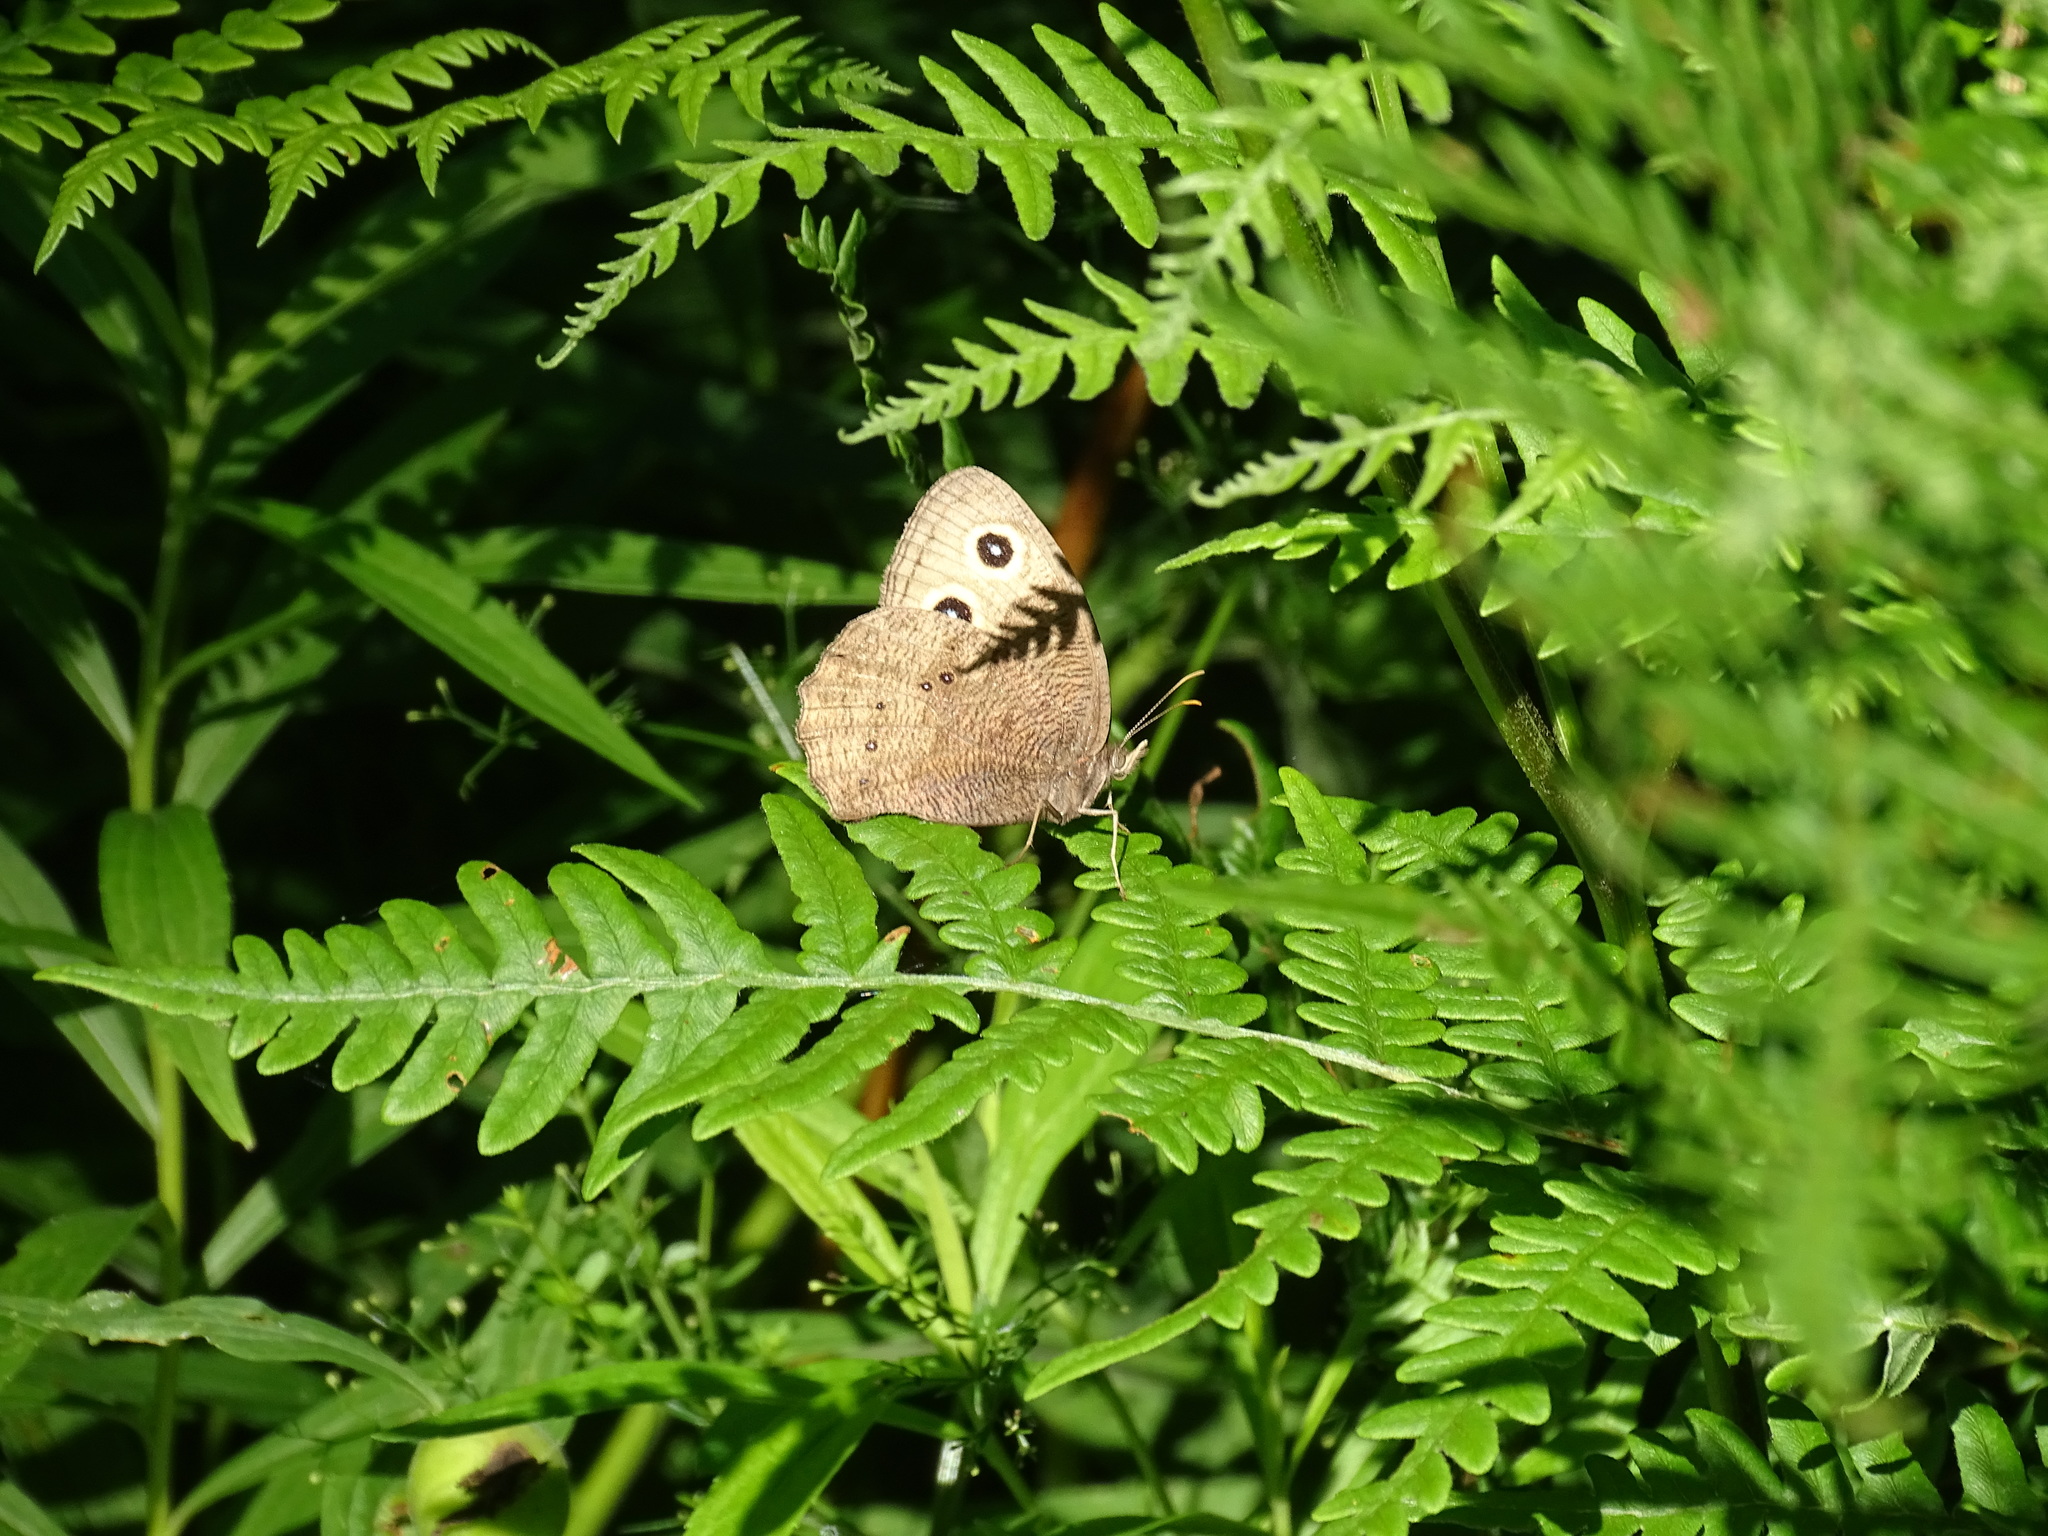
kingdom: Animalia
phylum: Arthropoda
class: Insecta
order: Lepidoptera
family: Nymphalidae
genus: Cercyonis
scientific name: Cercyonis pegala
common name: Common wood-nymph
